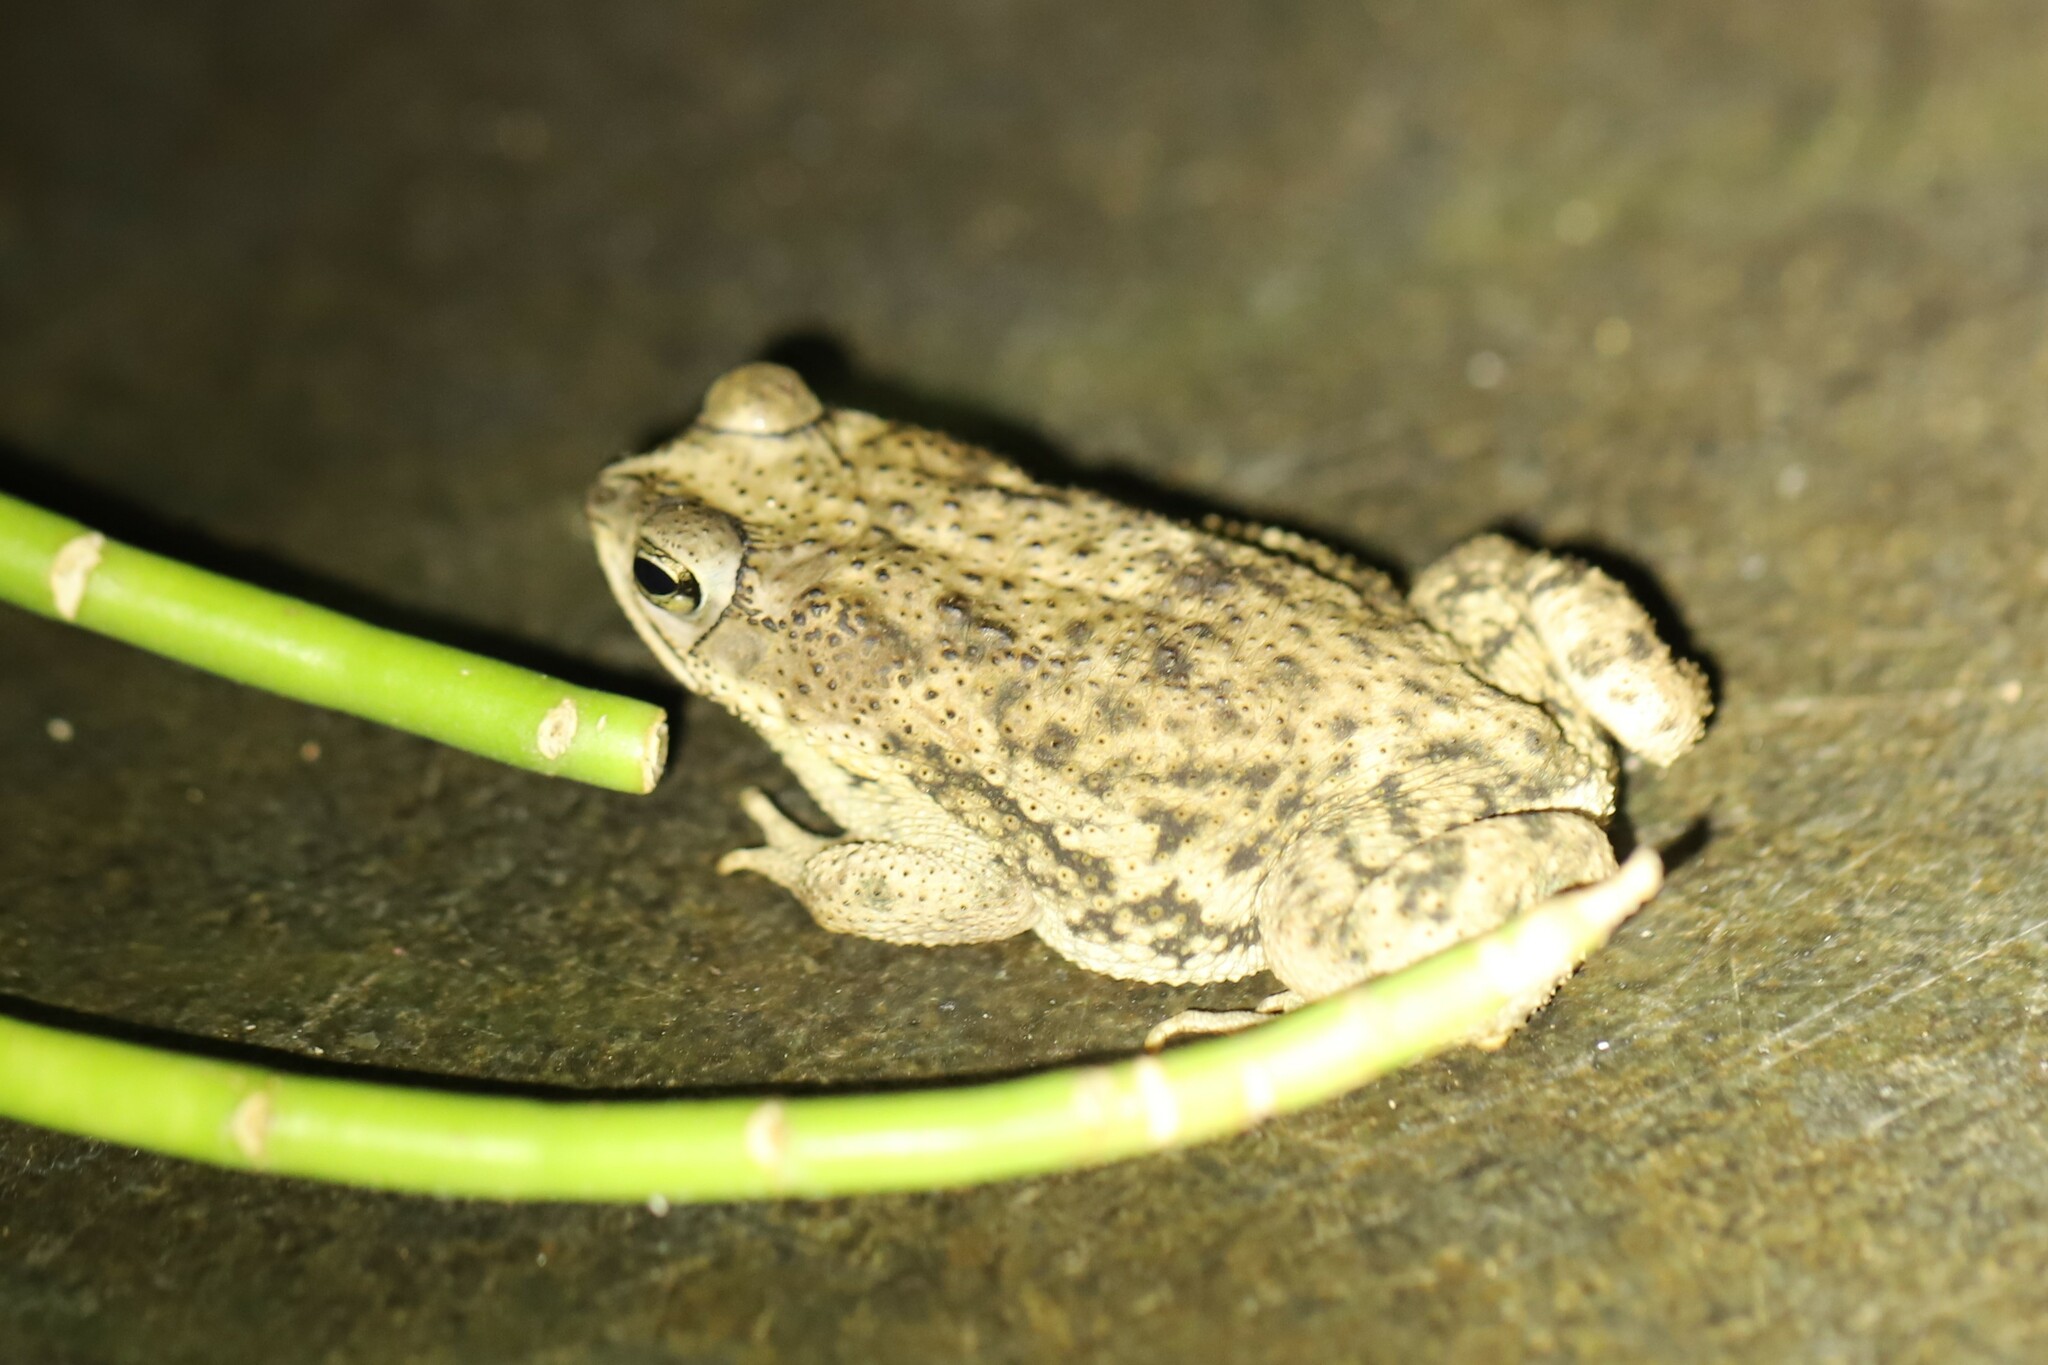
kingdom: Animalia
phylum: Chordata
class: Amphibia
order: Anura
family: Bufonidae
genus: Rhinella
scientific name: Rhinella major
